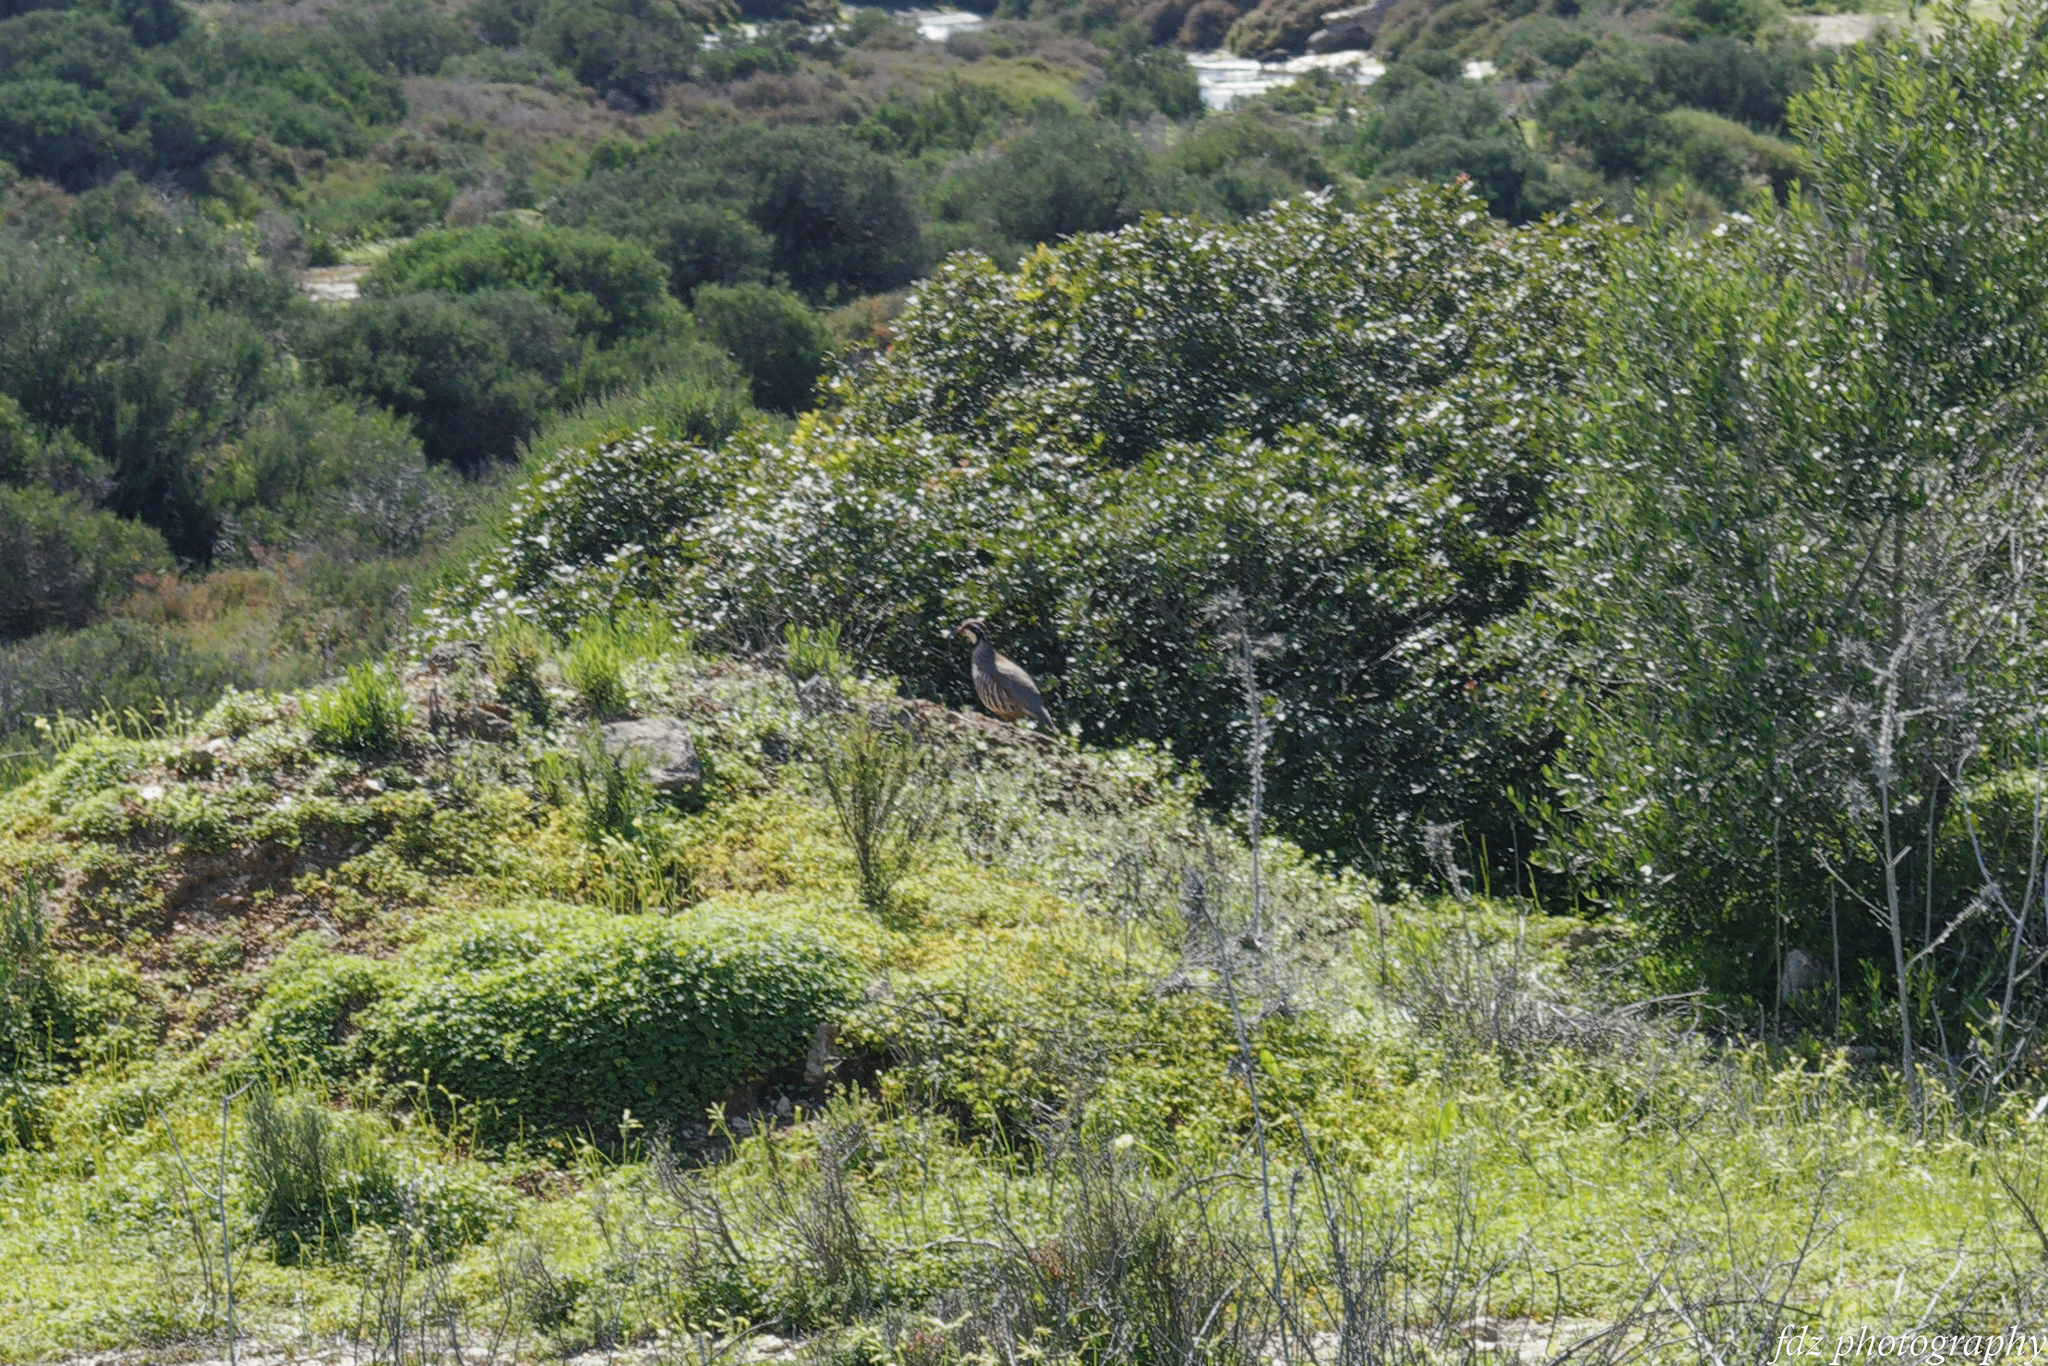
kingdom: Animalia
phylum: Chordata
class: Aves
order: Galliformes
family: Phasianidae
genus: Alectoris
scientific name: Alectoris rufa
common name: Red-legged partridge
